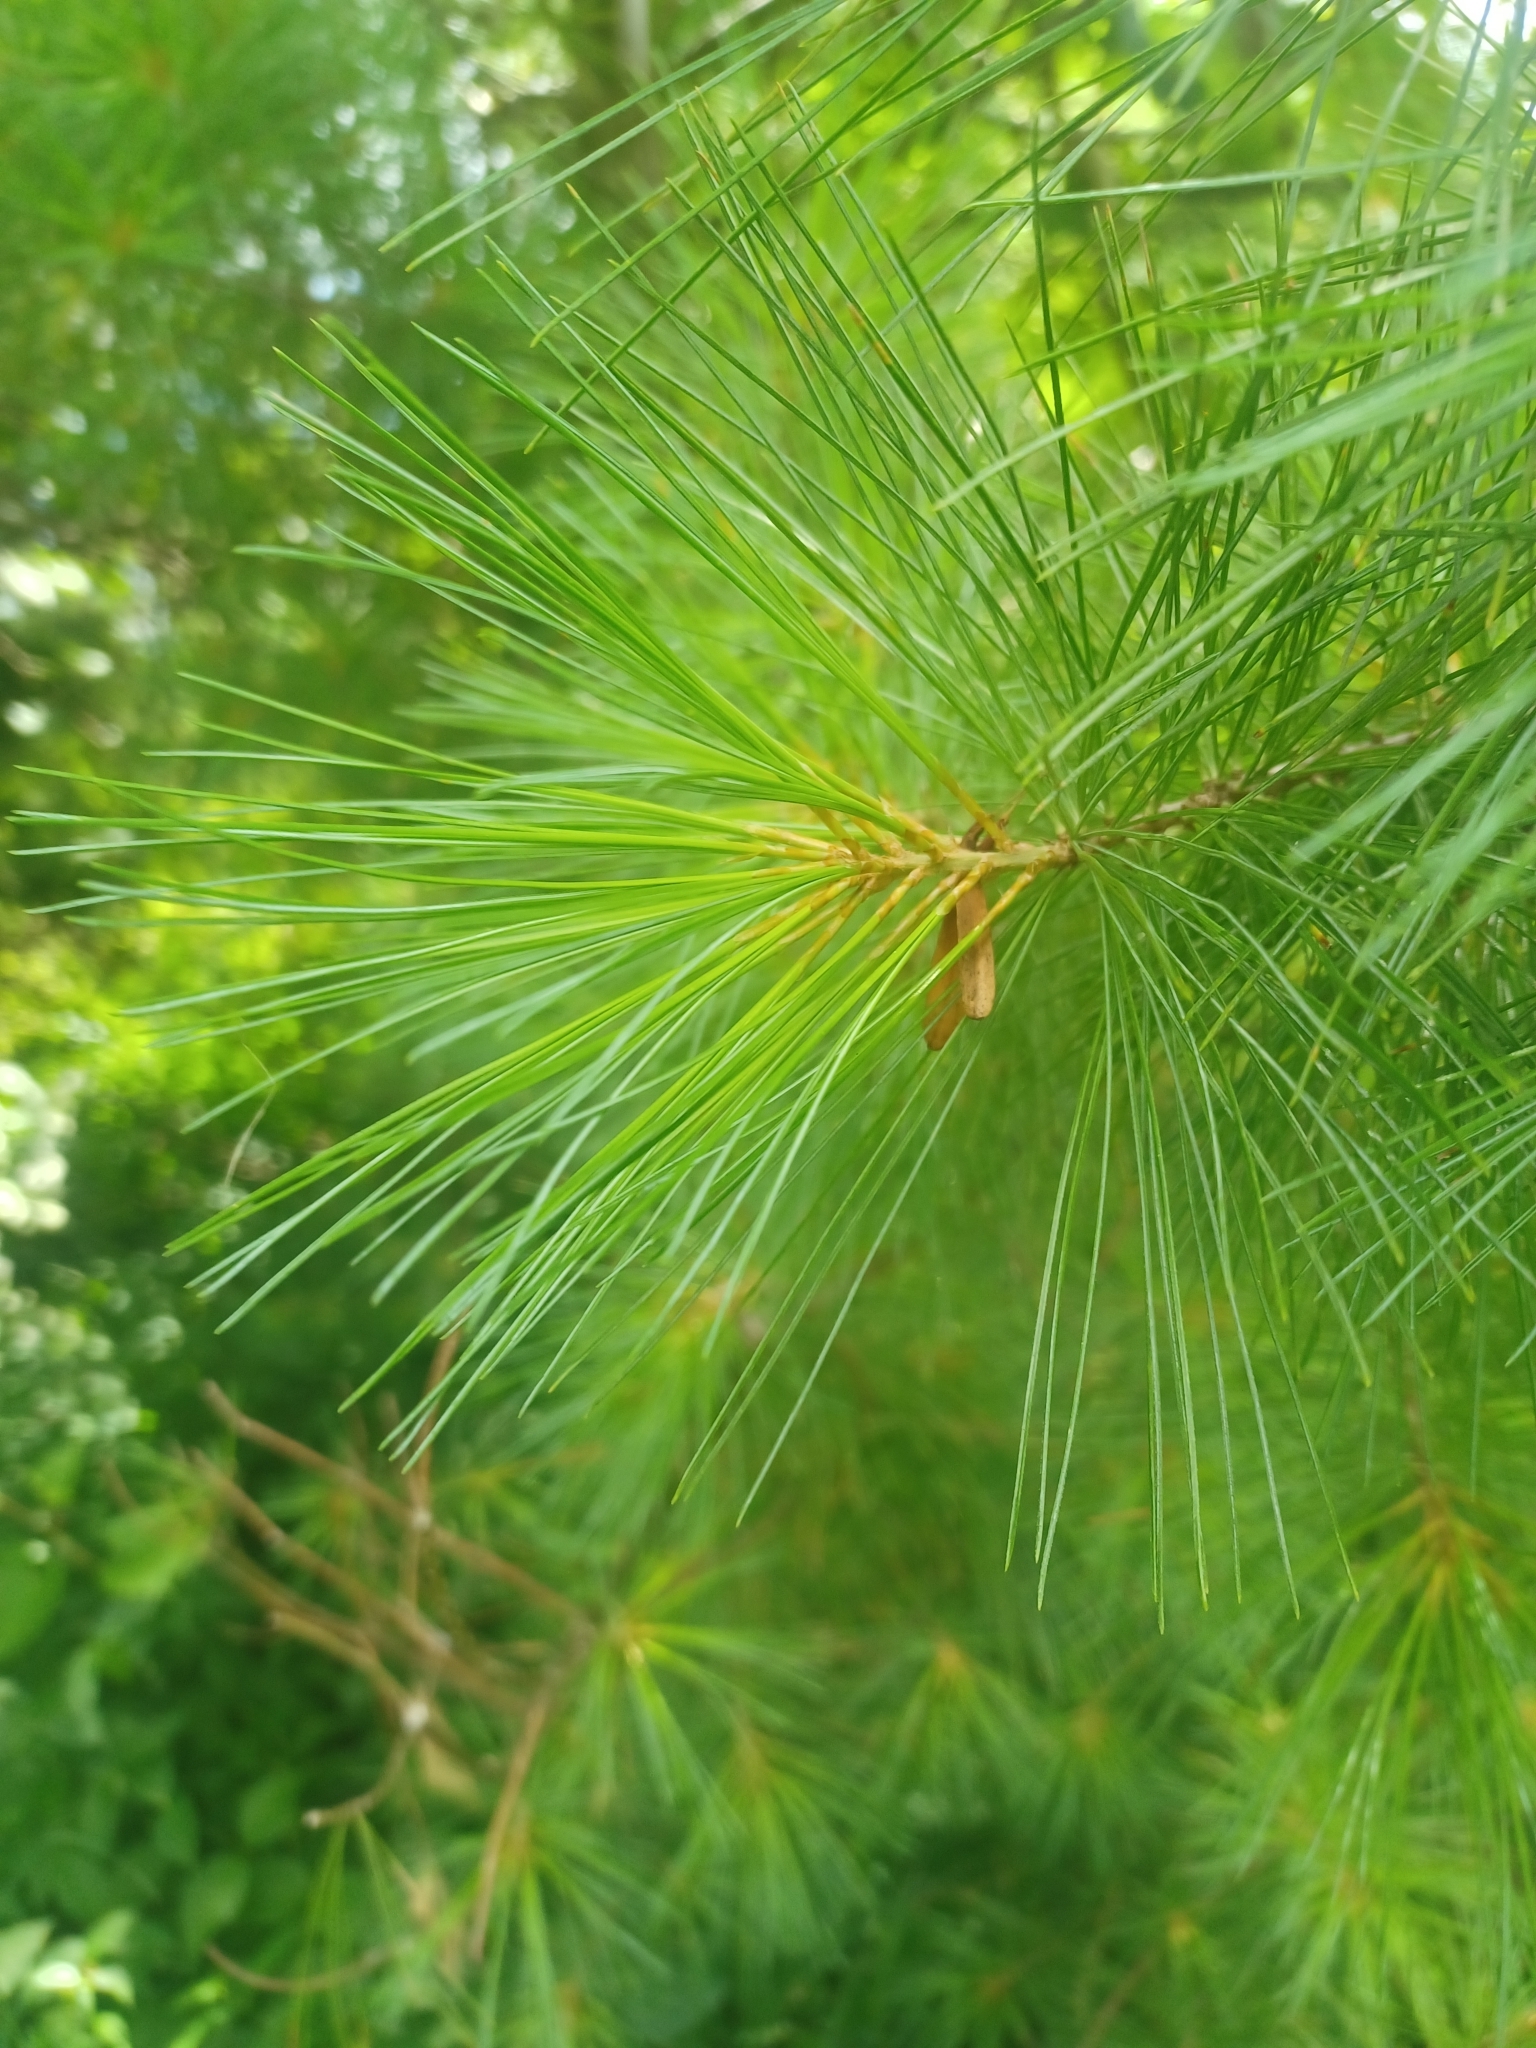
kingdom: Plantae
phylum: Tracheophyta
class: Pinopsida
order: Pinales
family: Pinaceae
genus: Pinus
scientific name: Pinus strobus
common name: Weymouth pine
